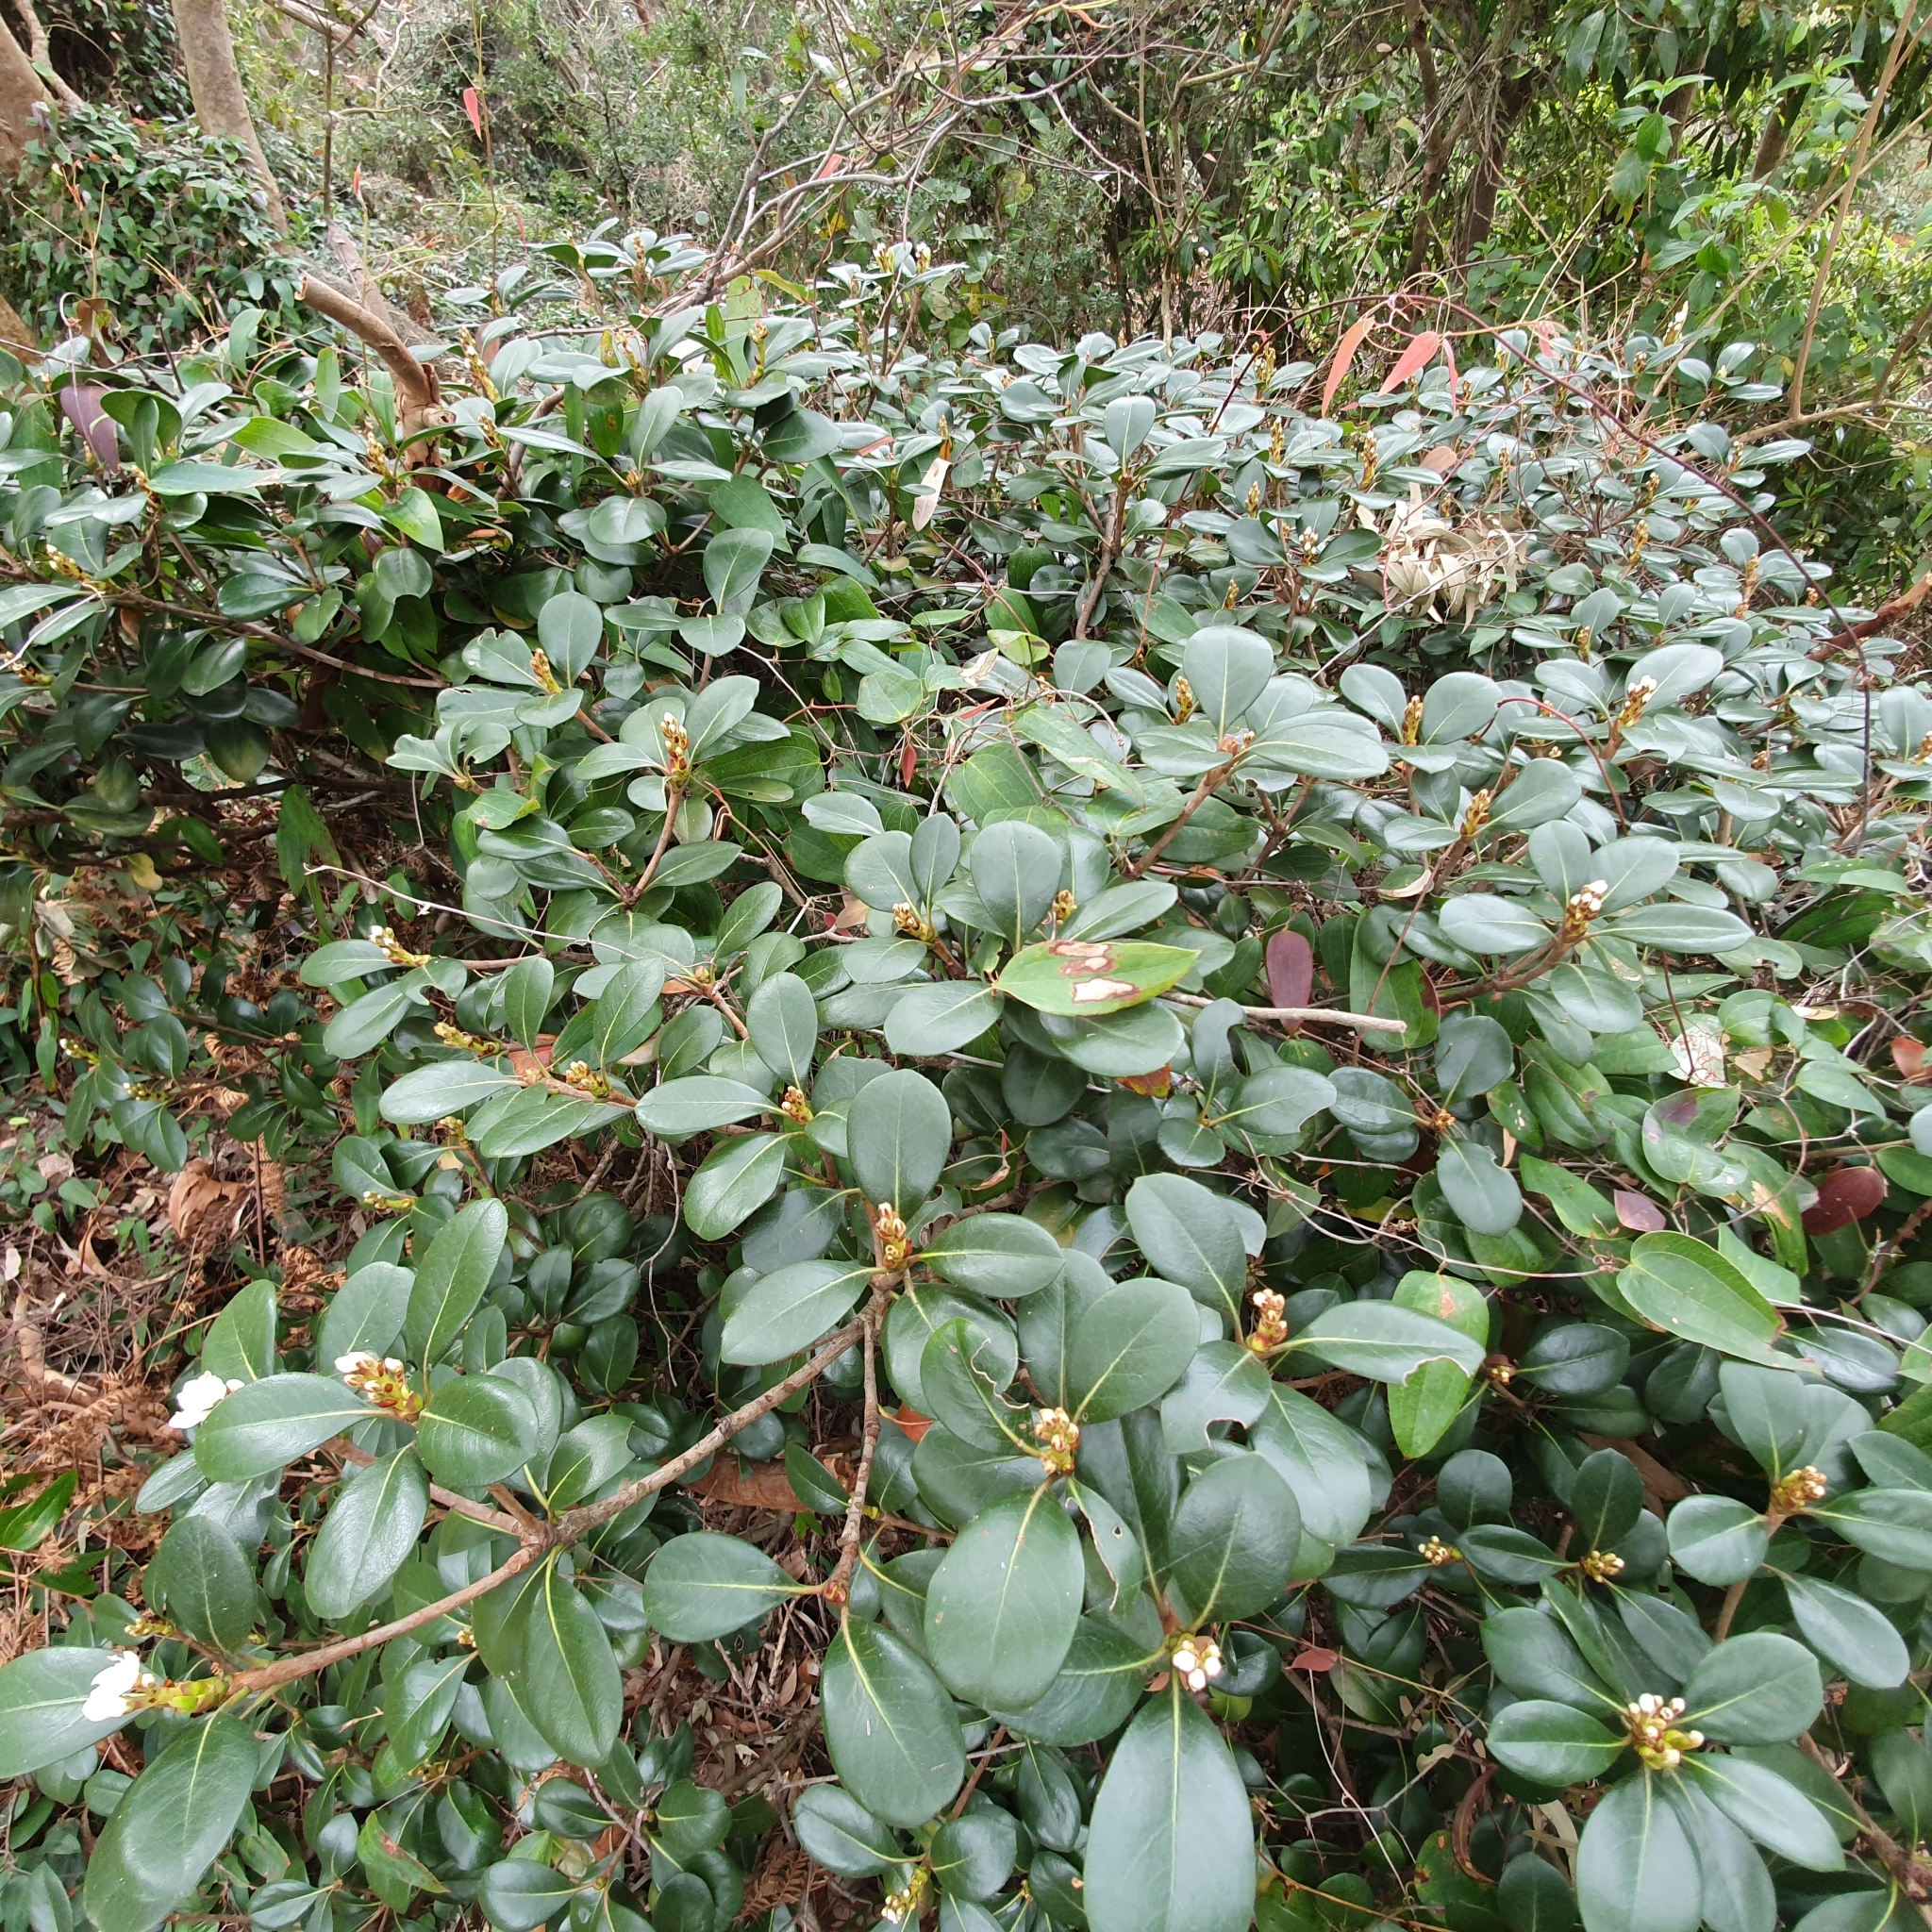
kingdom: Plantae
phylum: Tracheophyta
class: Magnoliopsida
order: Rosales
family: Rosaceae
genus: Rhaphiolepis
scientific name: Rhaphiolepis umbellata
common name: Yedda-hawthorn
